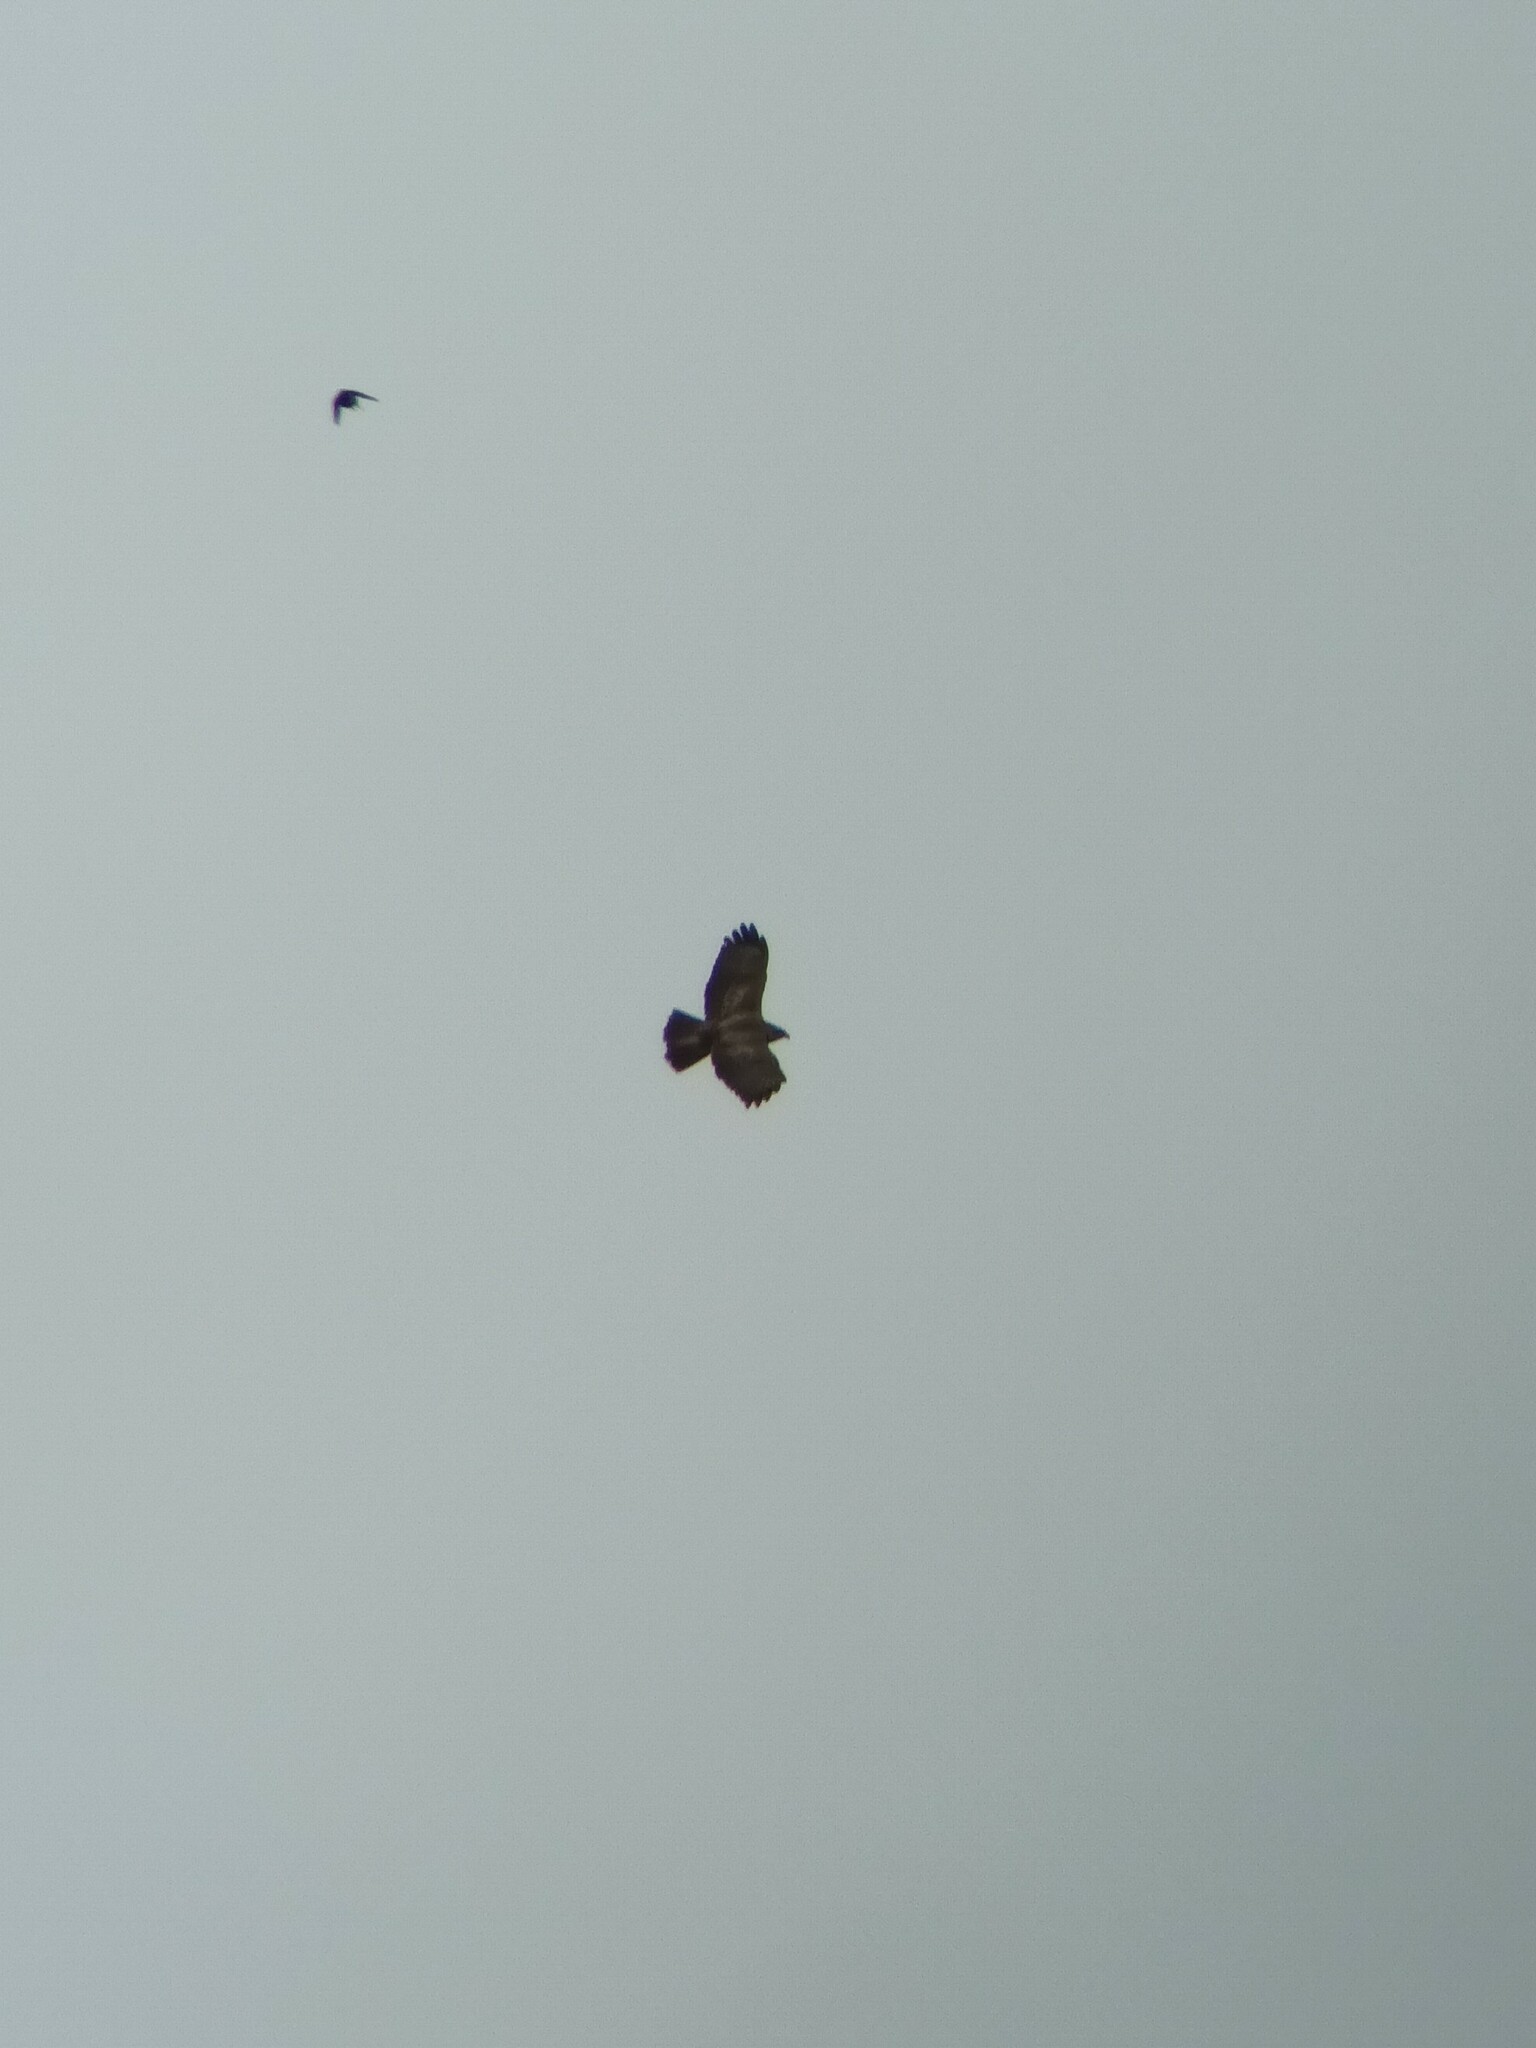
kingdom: Animalia
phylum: Chordata
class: Aves
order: Accipitriformes
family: Accipitridae
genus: Buteo
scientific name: Buteo buteo
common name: Common buzzard
